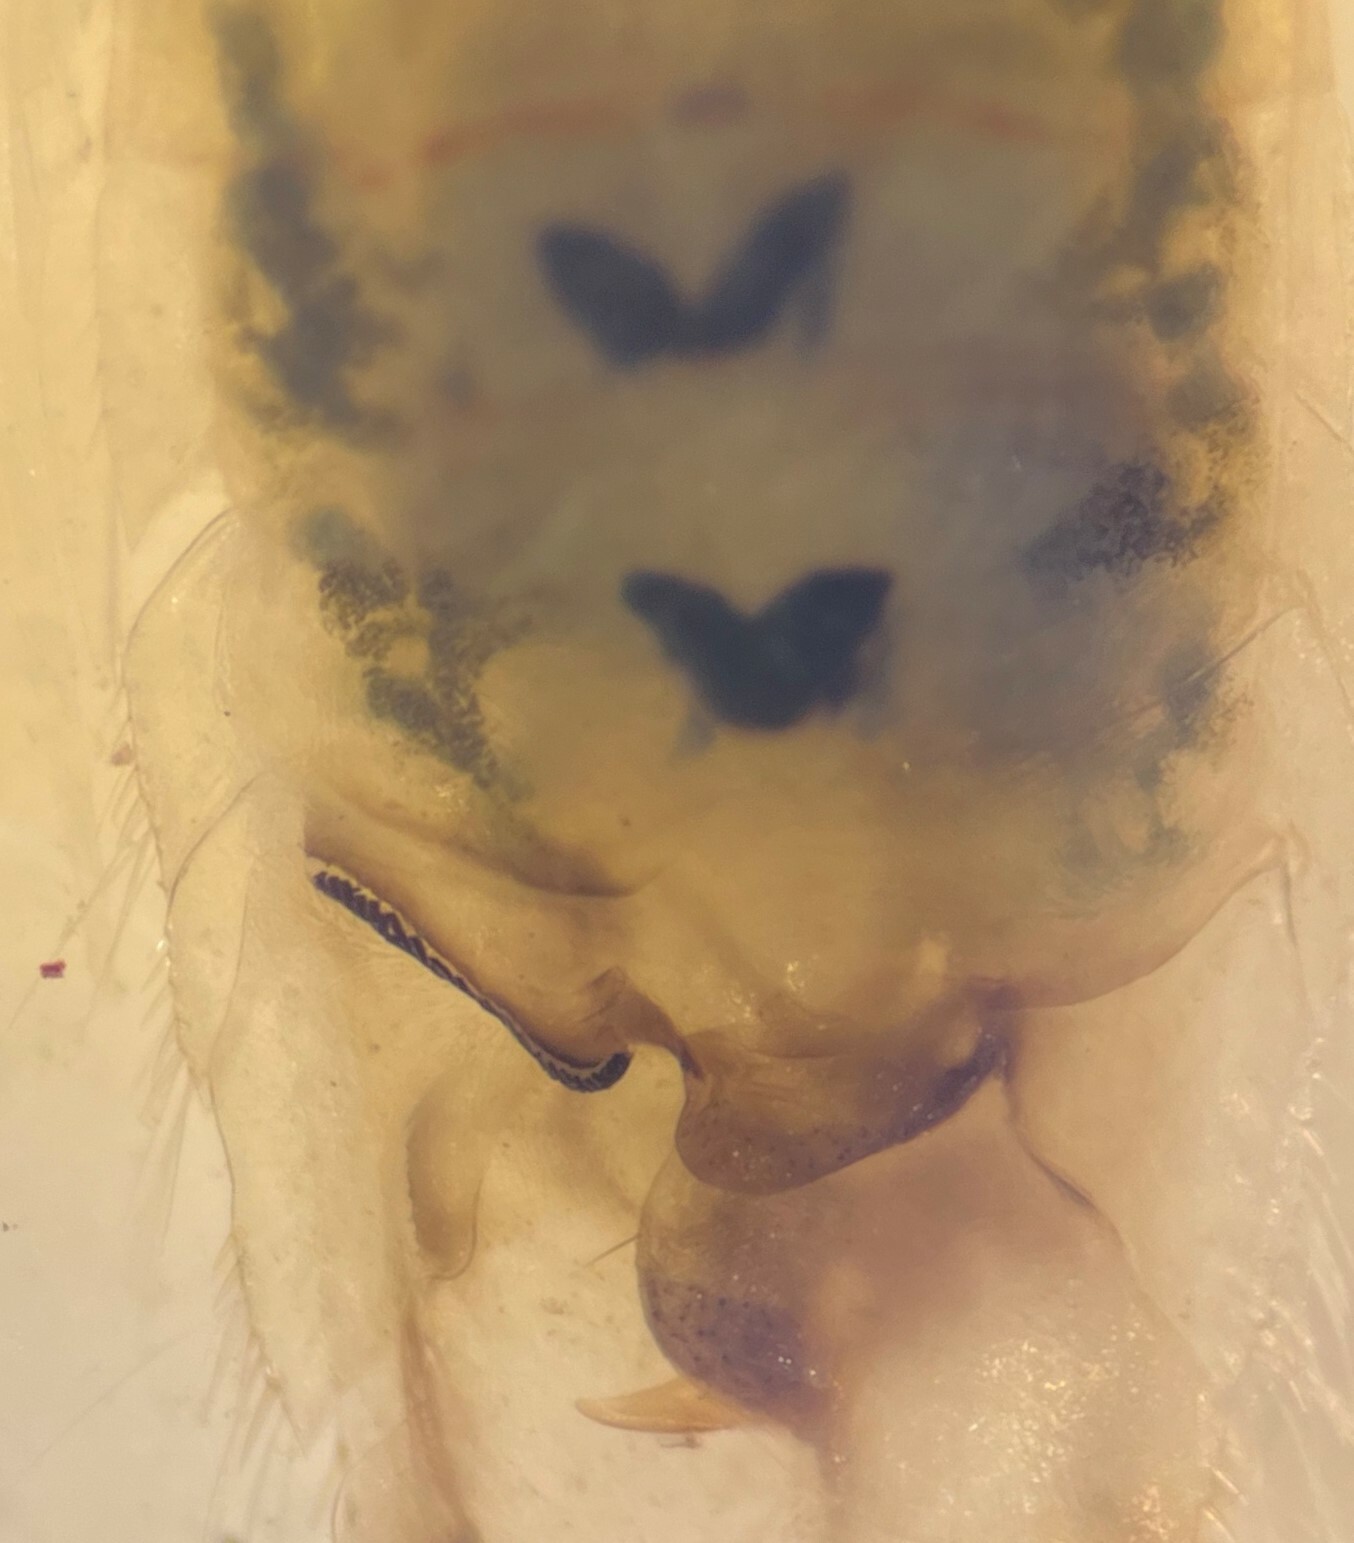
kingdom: Animalia
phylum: Arthropoda
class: Insecta
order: Hemiptera
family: Corixidae
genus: Trichocorixa
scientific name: Trichocorixa calva
